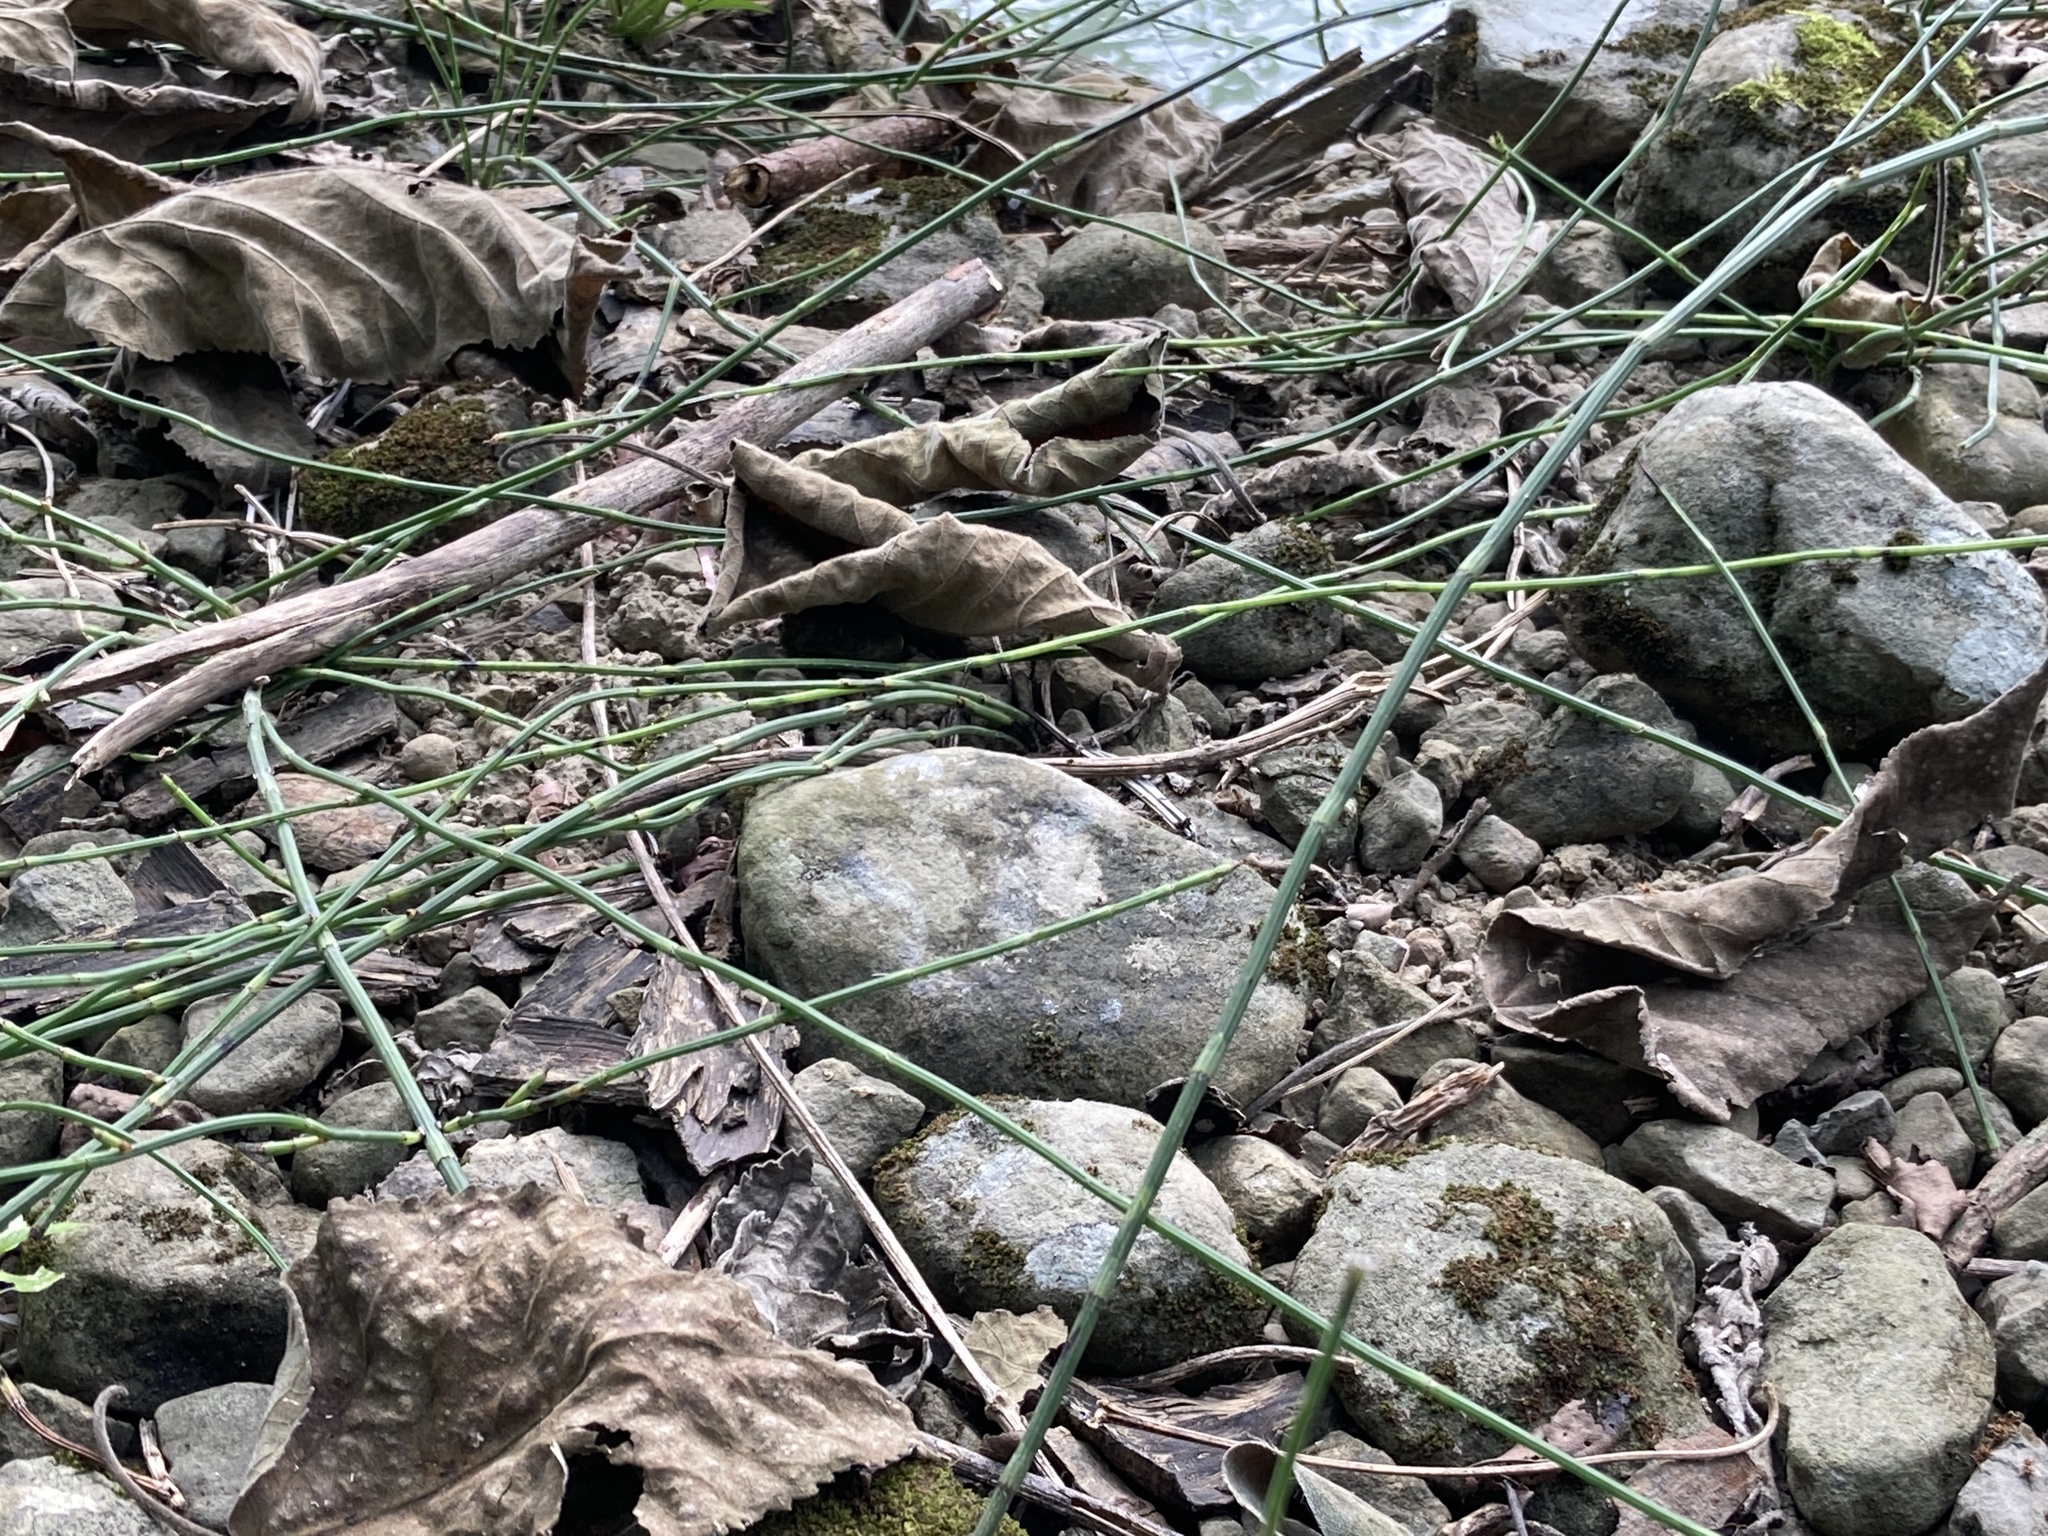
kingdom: Plantae
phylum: Tracheophyta
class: Polypodiopsida
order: Equisetales
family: Equisetaceae
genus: Equisetum
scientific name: Equisetum ramosissimum
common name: Branched horsetail
